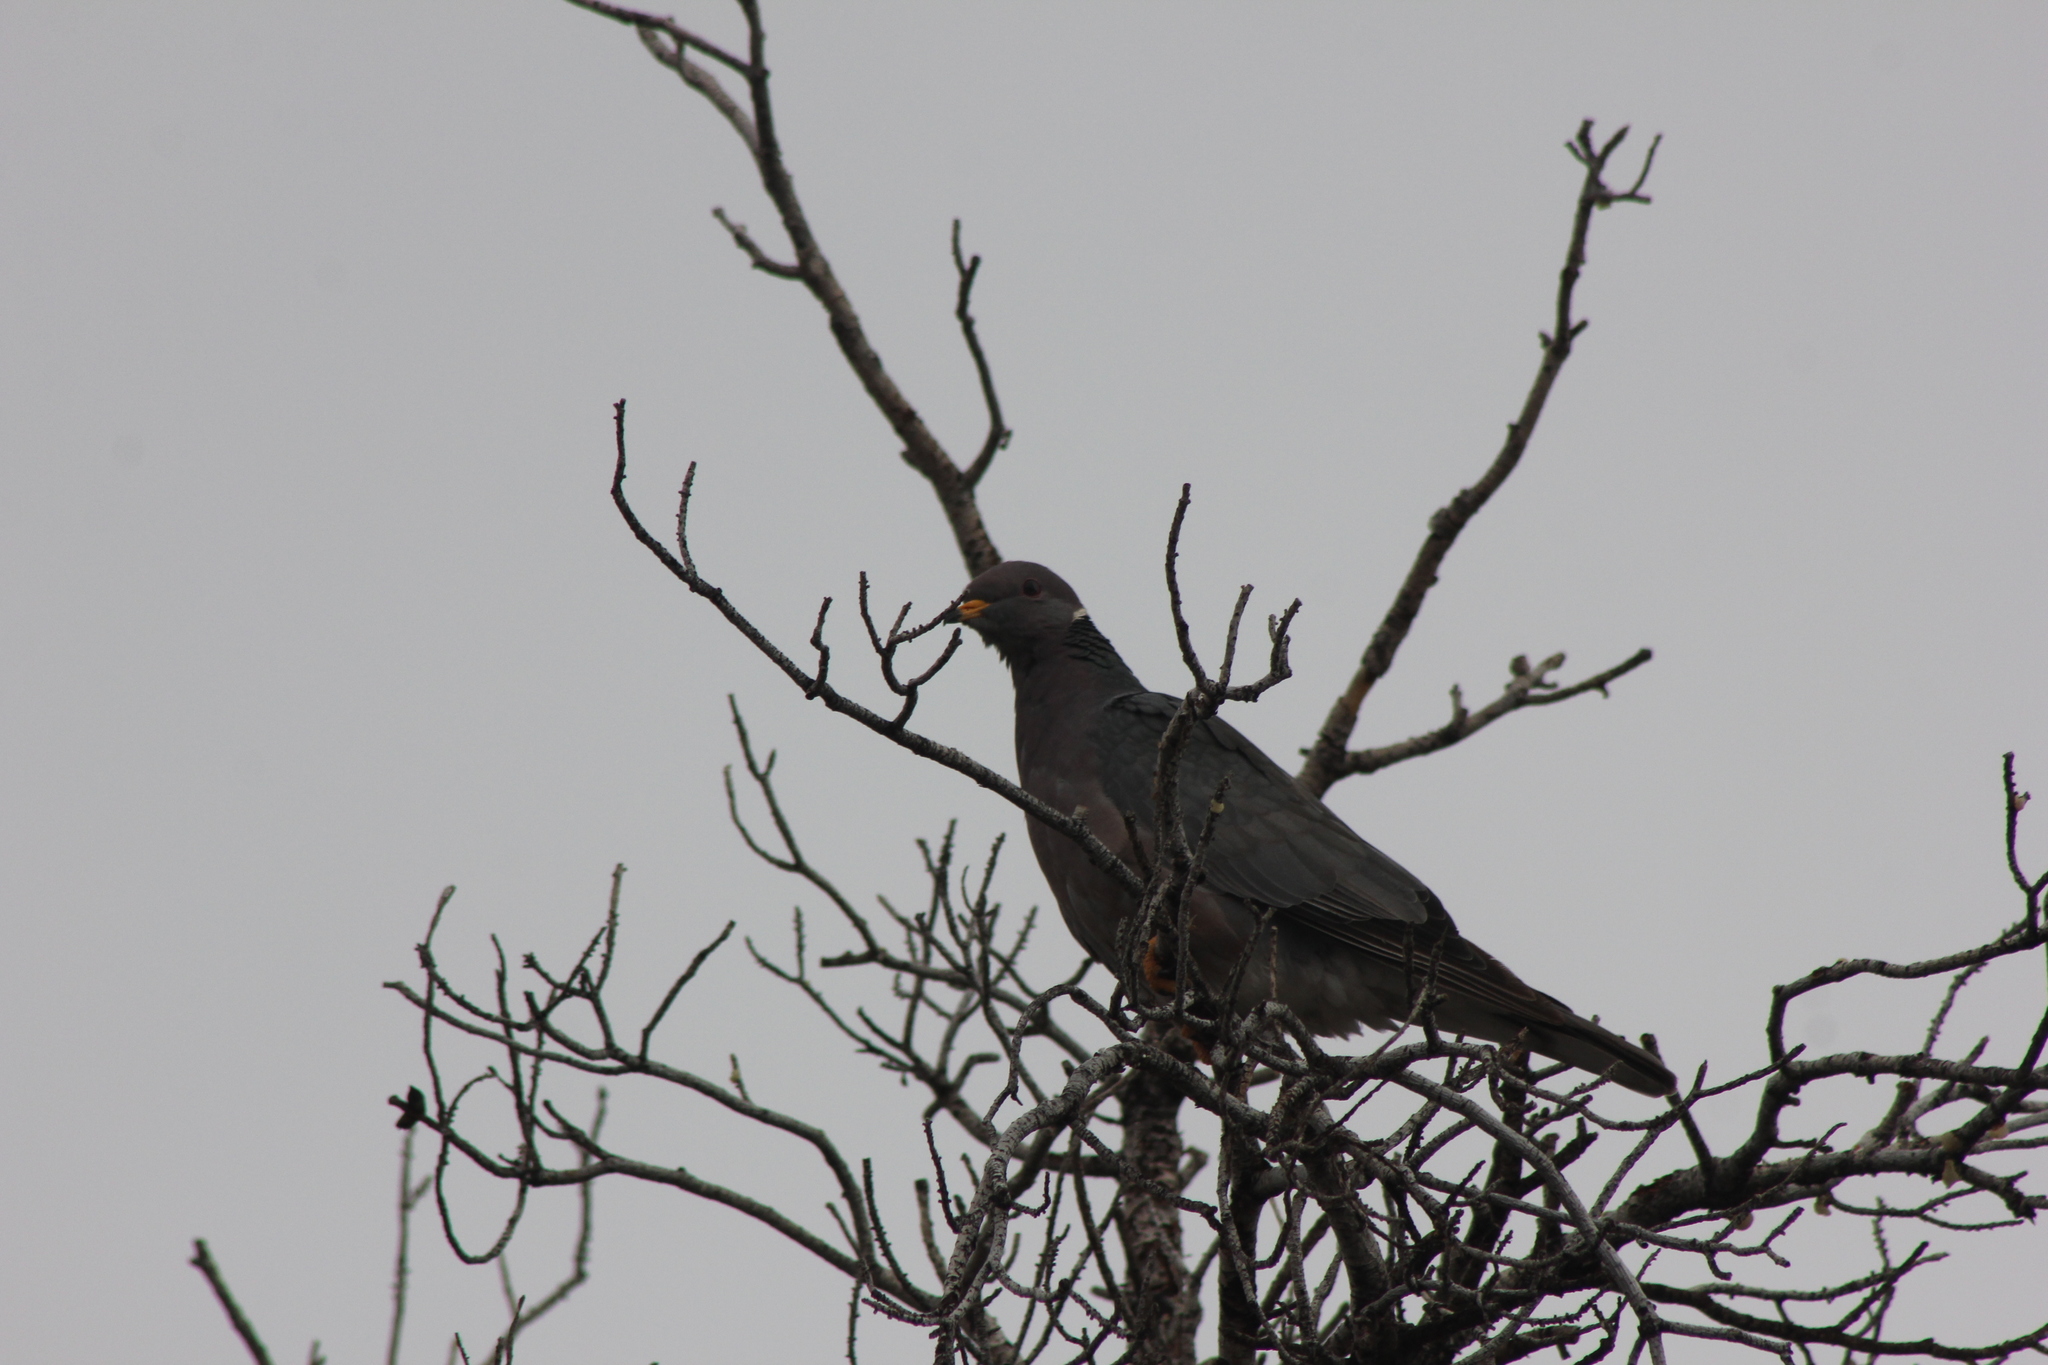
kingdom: Animalia
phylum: Chordata
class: Aves
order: Columbiformes
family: Columbidae
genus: Patagioenas
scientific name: Patagioenas fasciata
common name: Band-tailed pigeon
